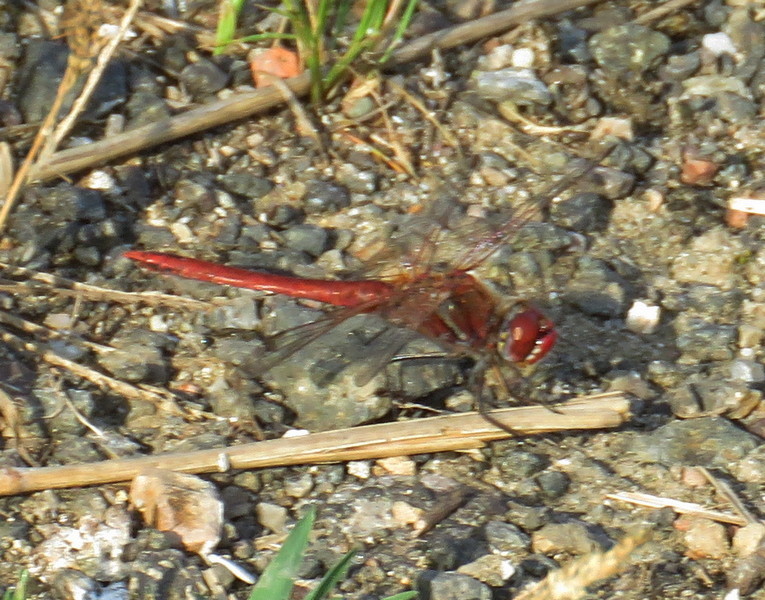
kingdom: Animalia
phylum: Arthropoda
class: Insecta
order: Odonata
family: Libellulidae
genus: Sympetrum
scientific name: Sympetrum fonscolombii
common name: Red-veined darter
